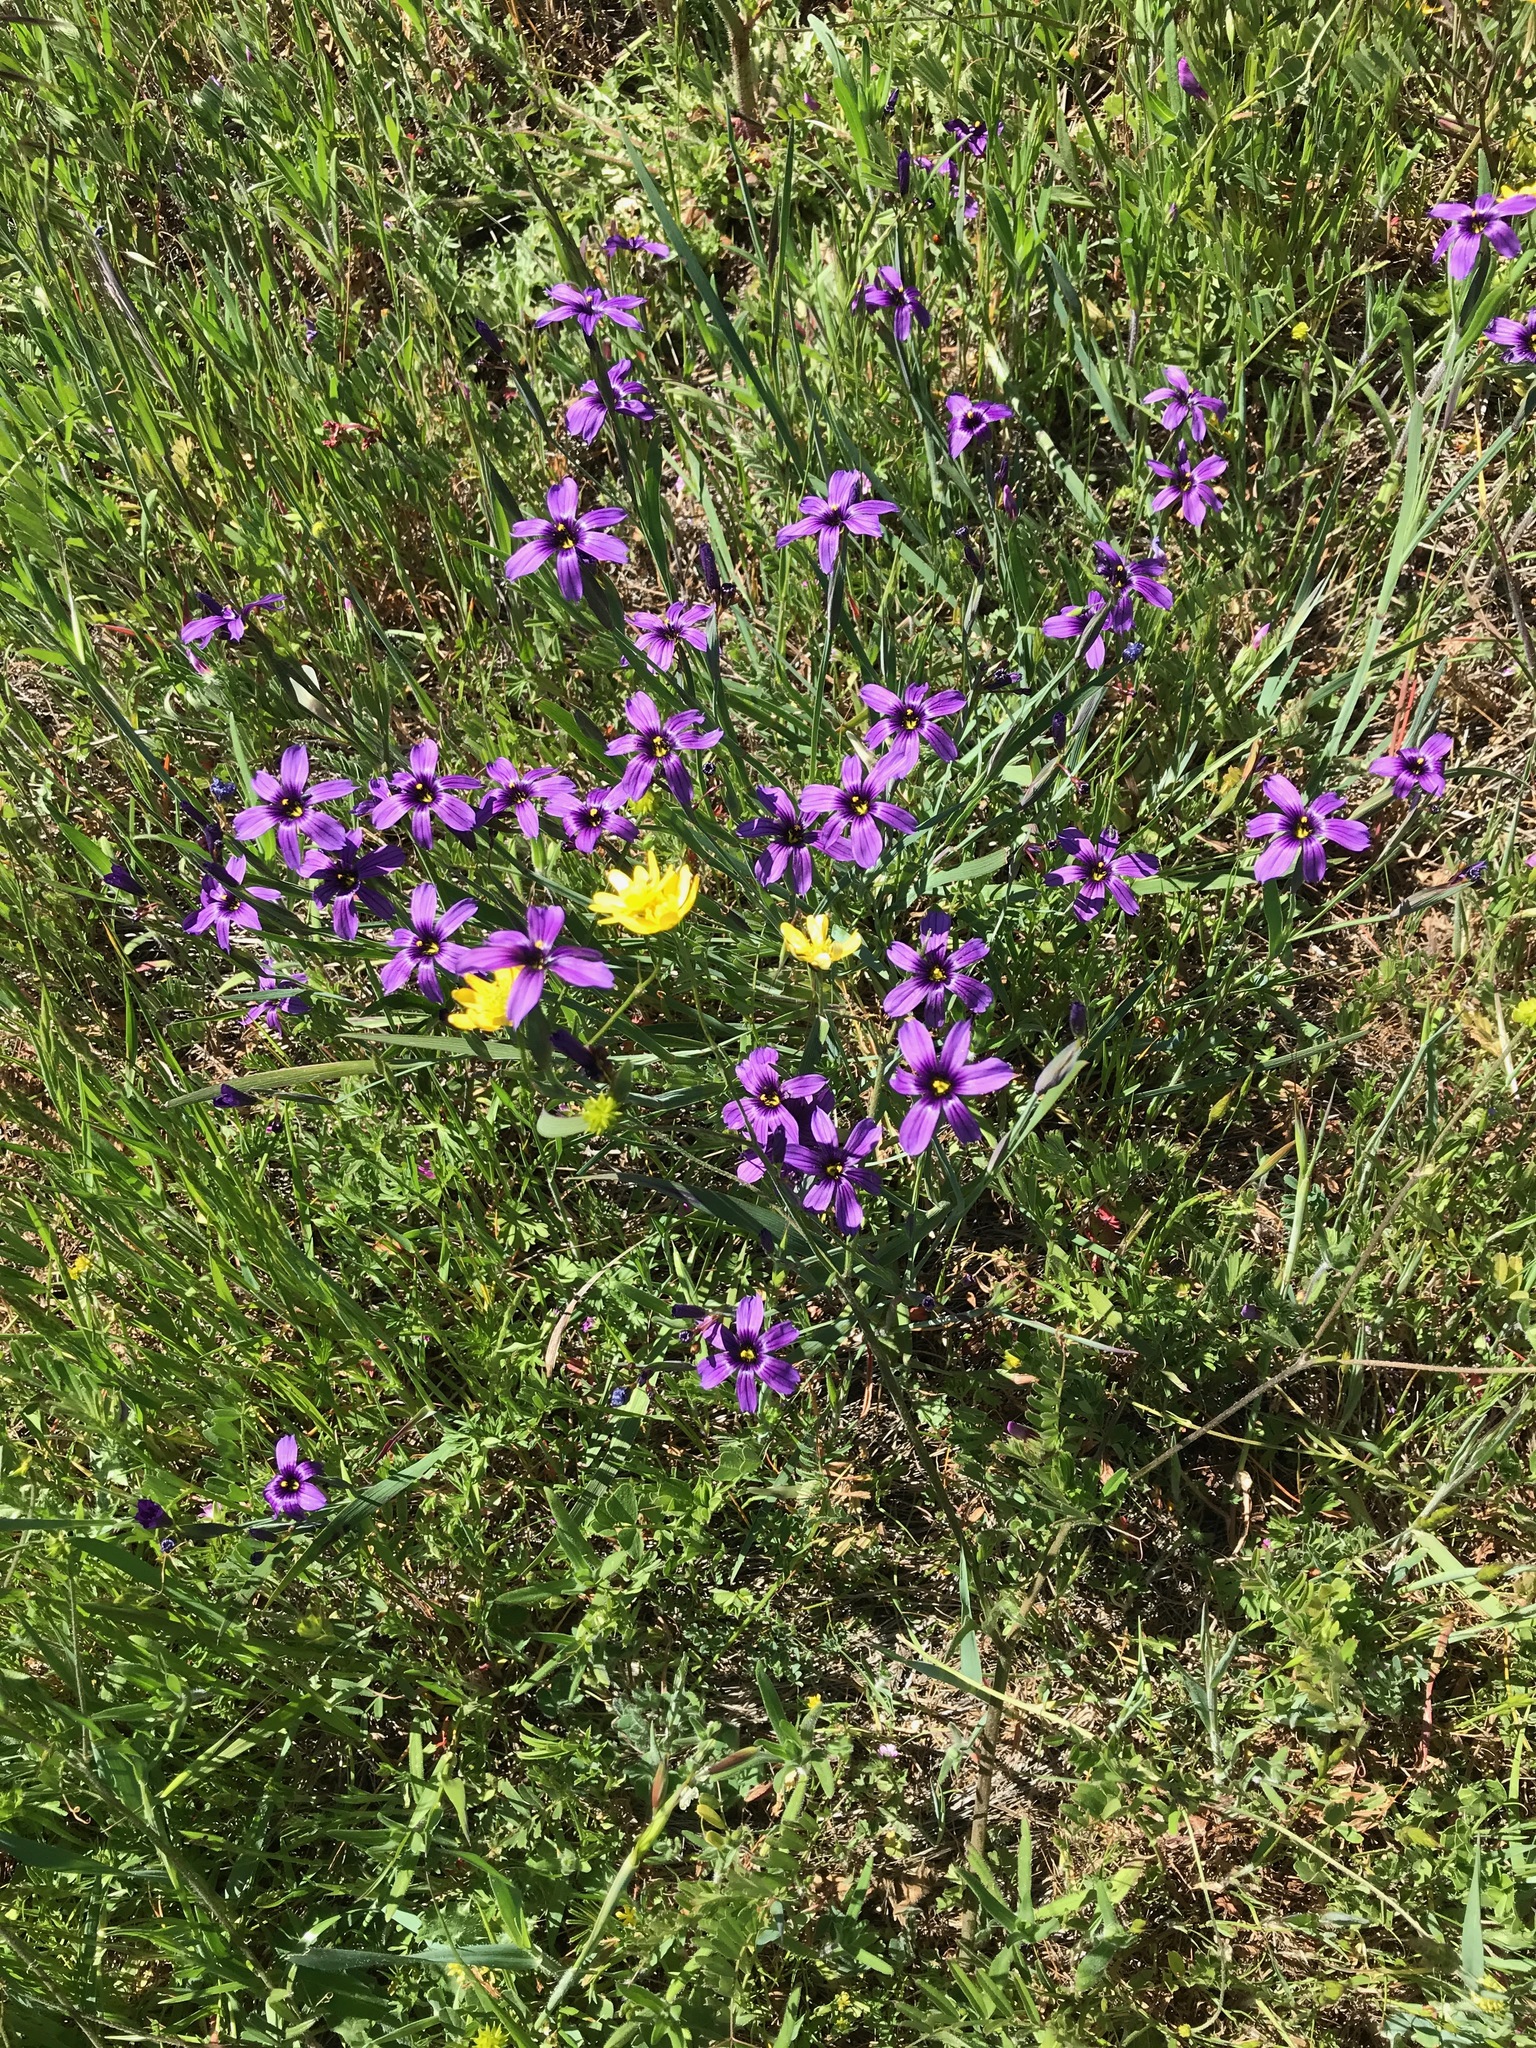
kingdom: Plantae
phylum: Tracheophyta
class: Liliopsida
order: Asparagales
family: Iridaceae
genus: Sisyrinchium
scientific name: Sisyrinchium bellum
